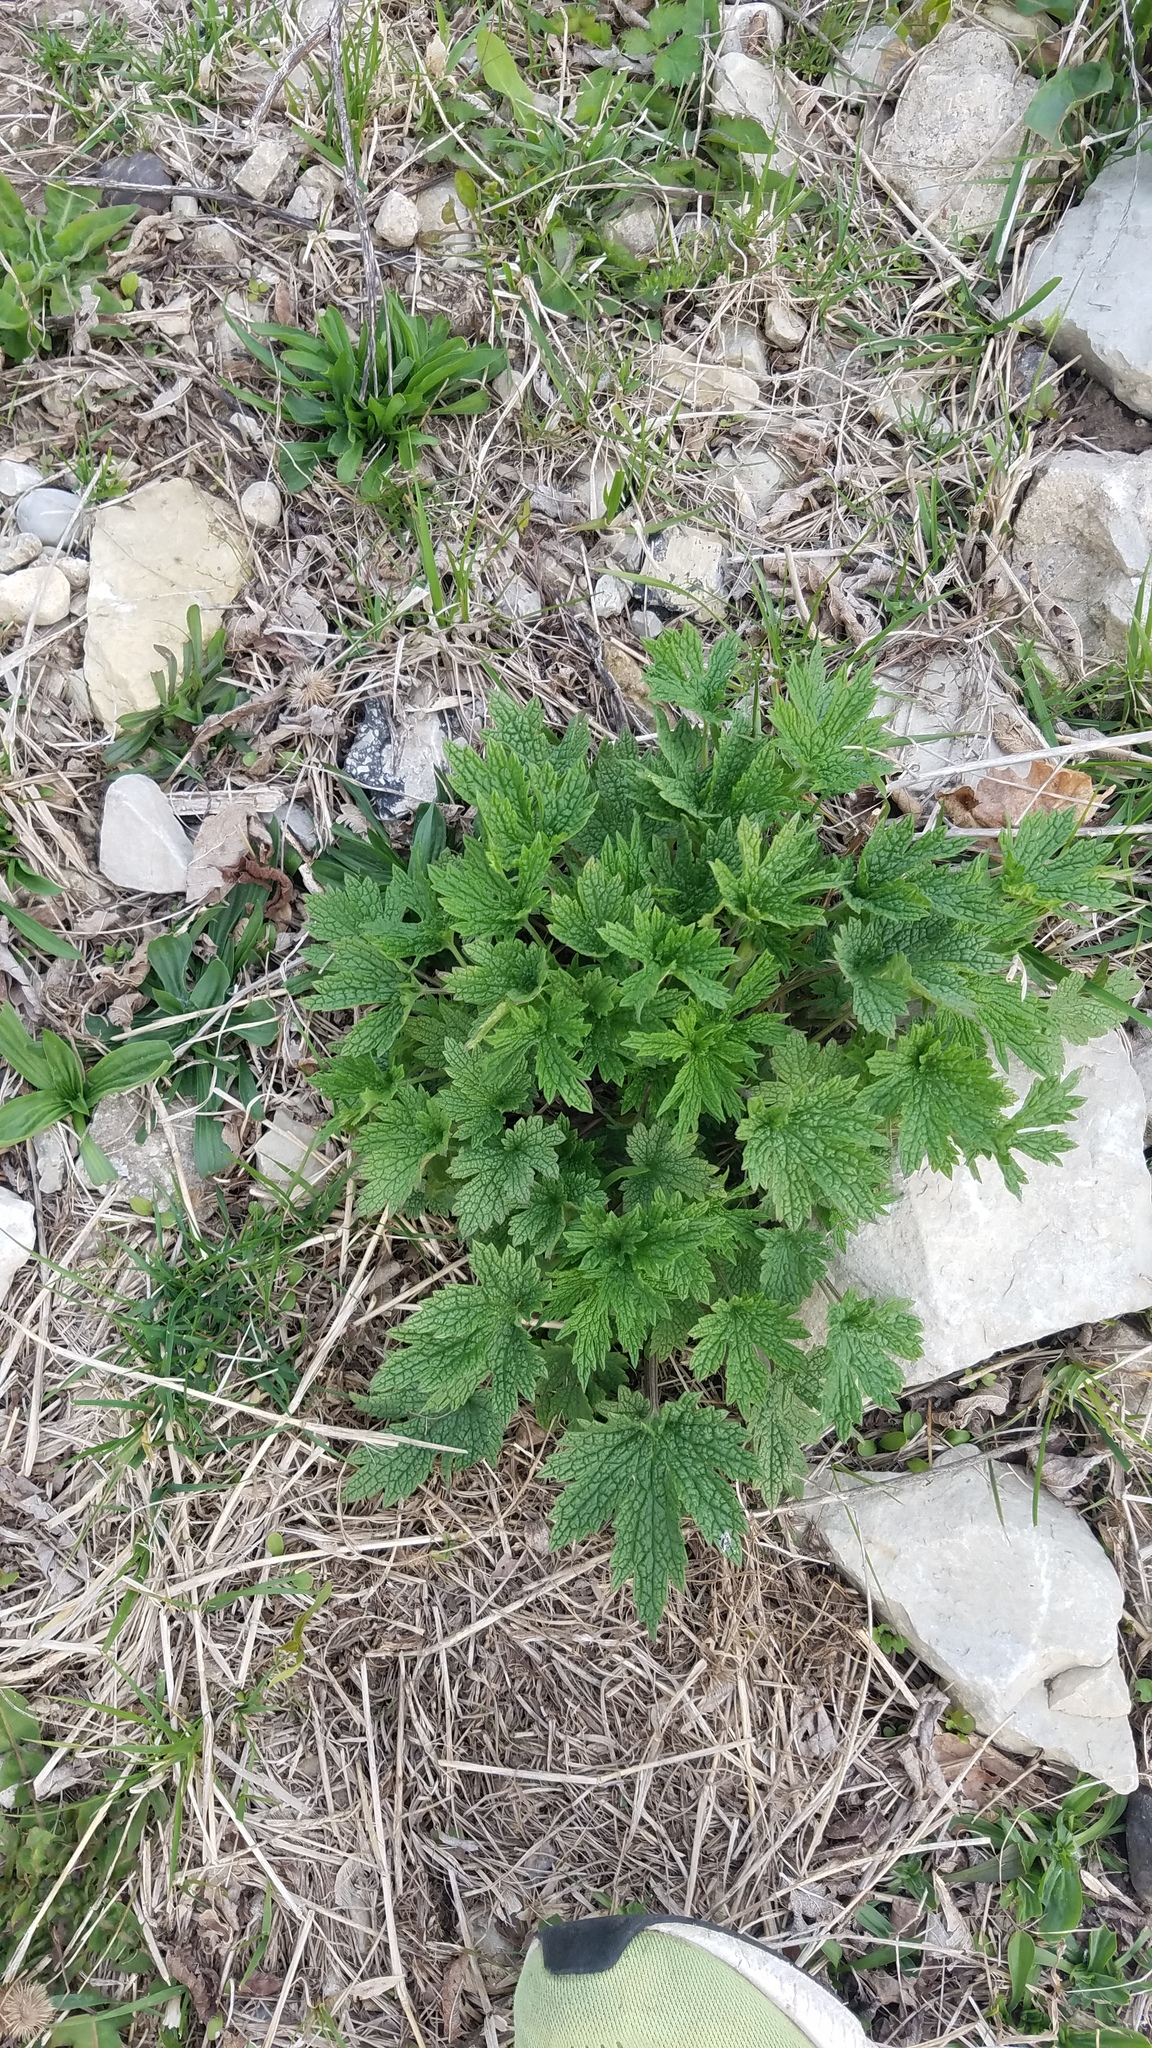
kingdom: Plantae
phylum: Tracheophyta
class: Magnoliopsida
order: Lamiales
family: Lamiaceae
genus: Leonurus
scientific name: Leonurus cardiaca
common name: Motherwort
